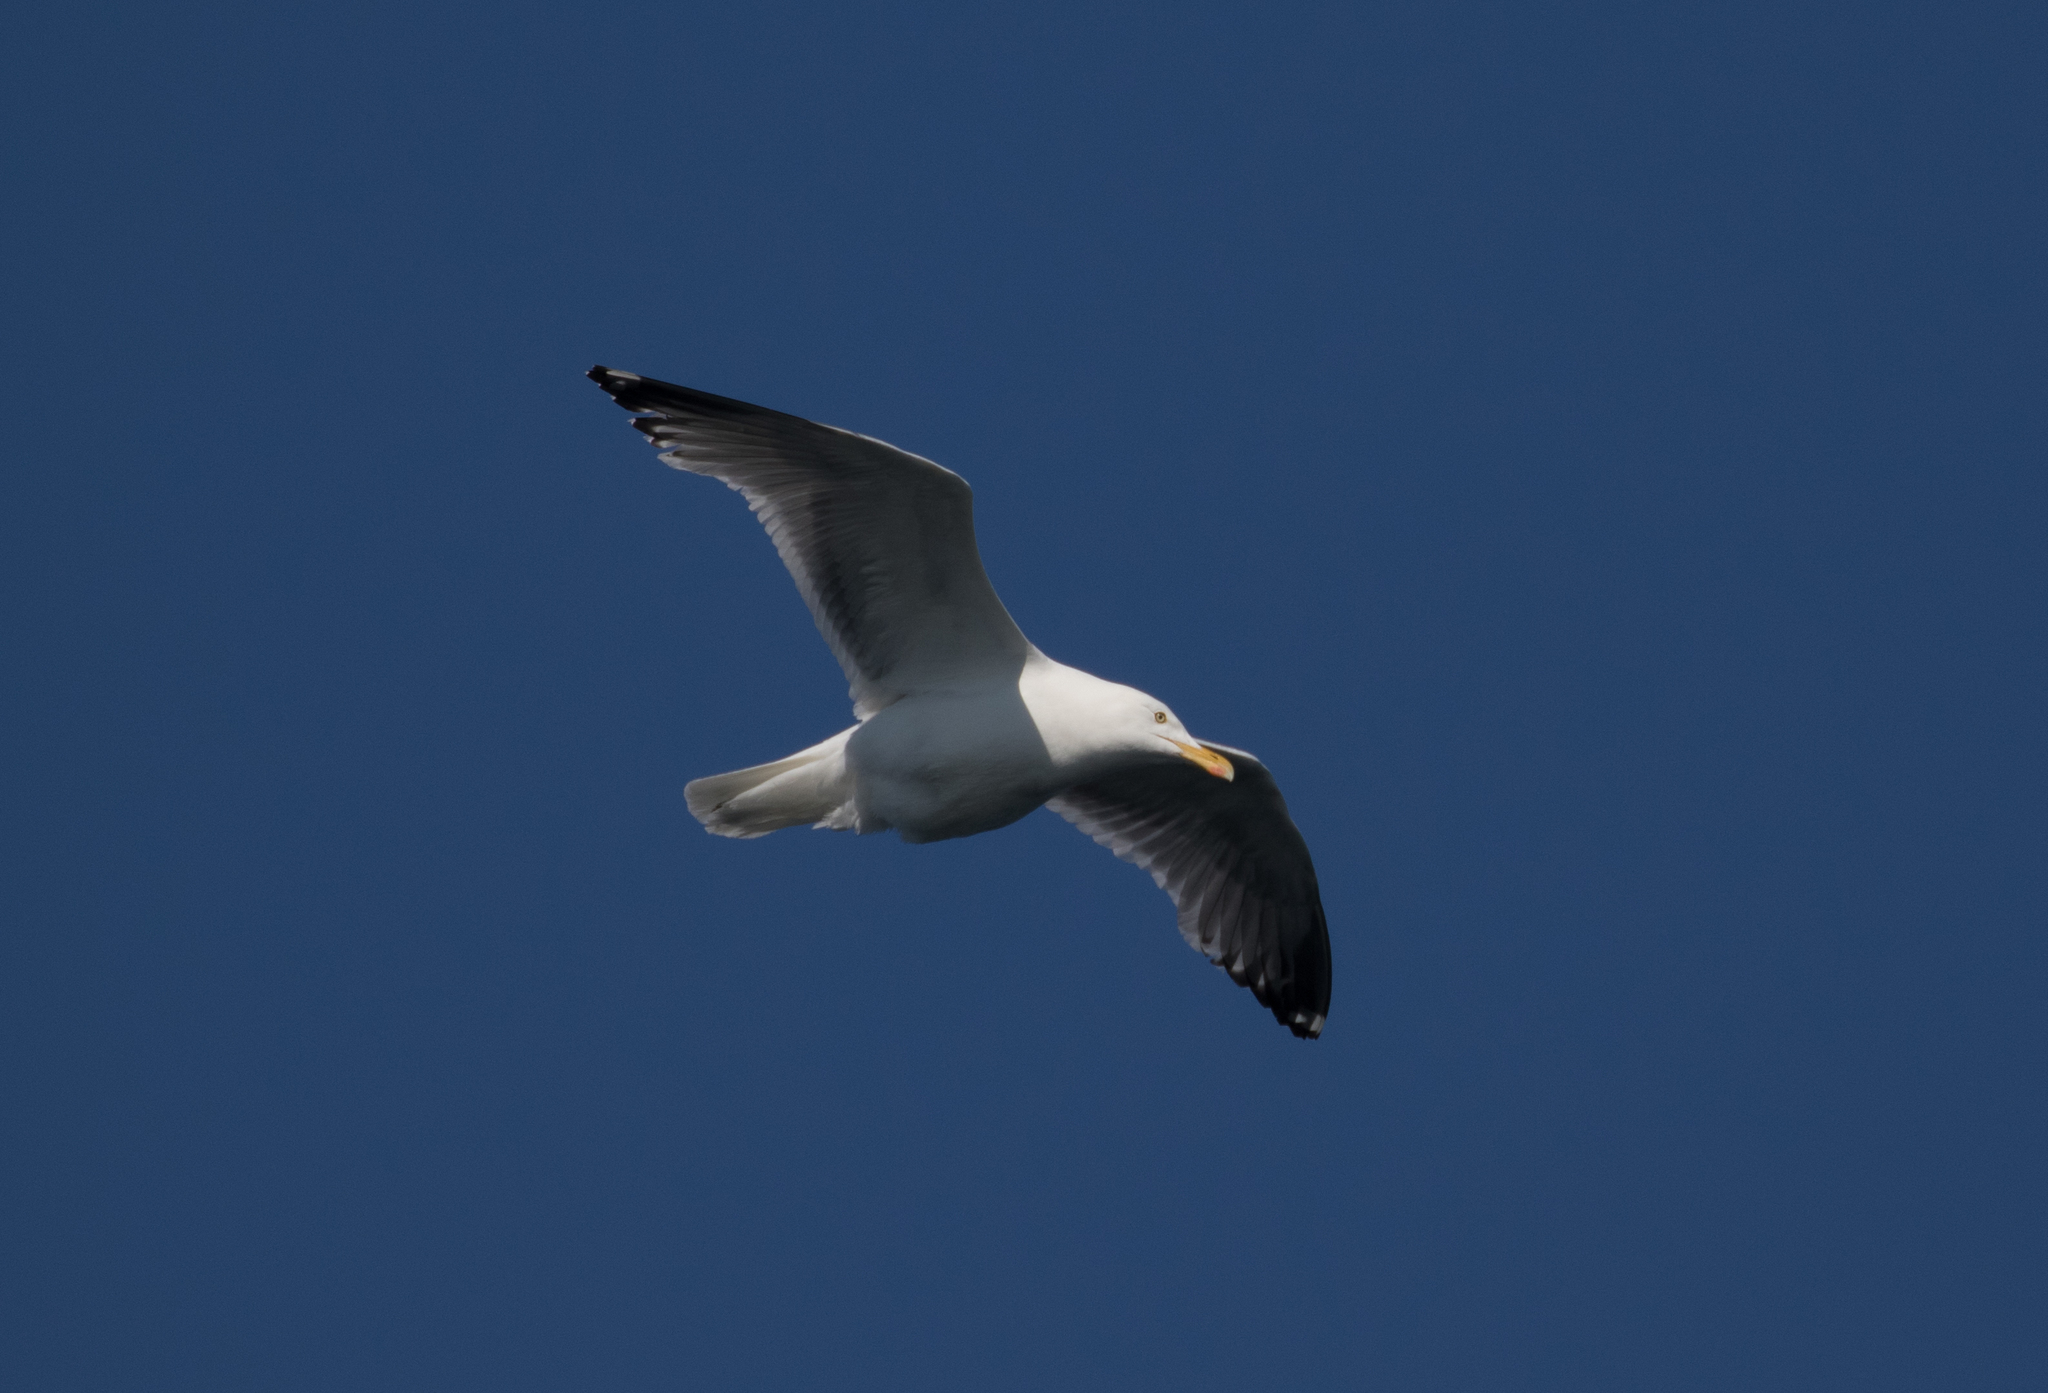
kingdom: Animalia
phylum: Chordata
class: Aves
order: Charadriiformes
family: Laridae
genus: Larus
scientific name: Larus argentatus
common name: Herring gull
